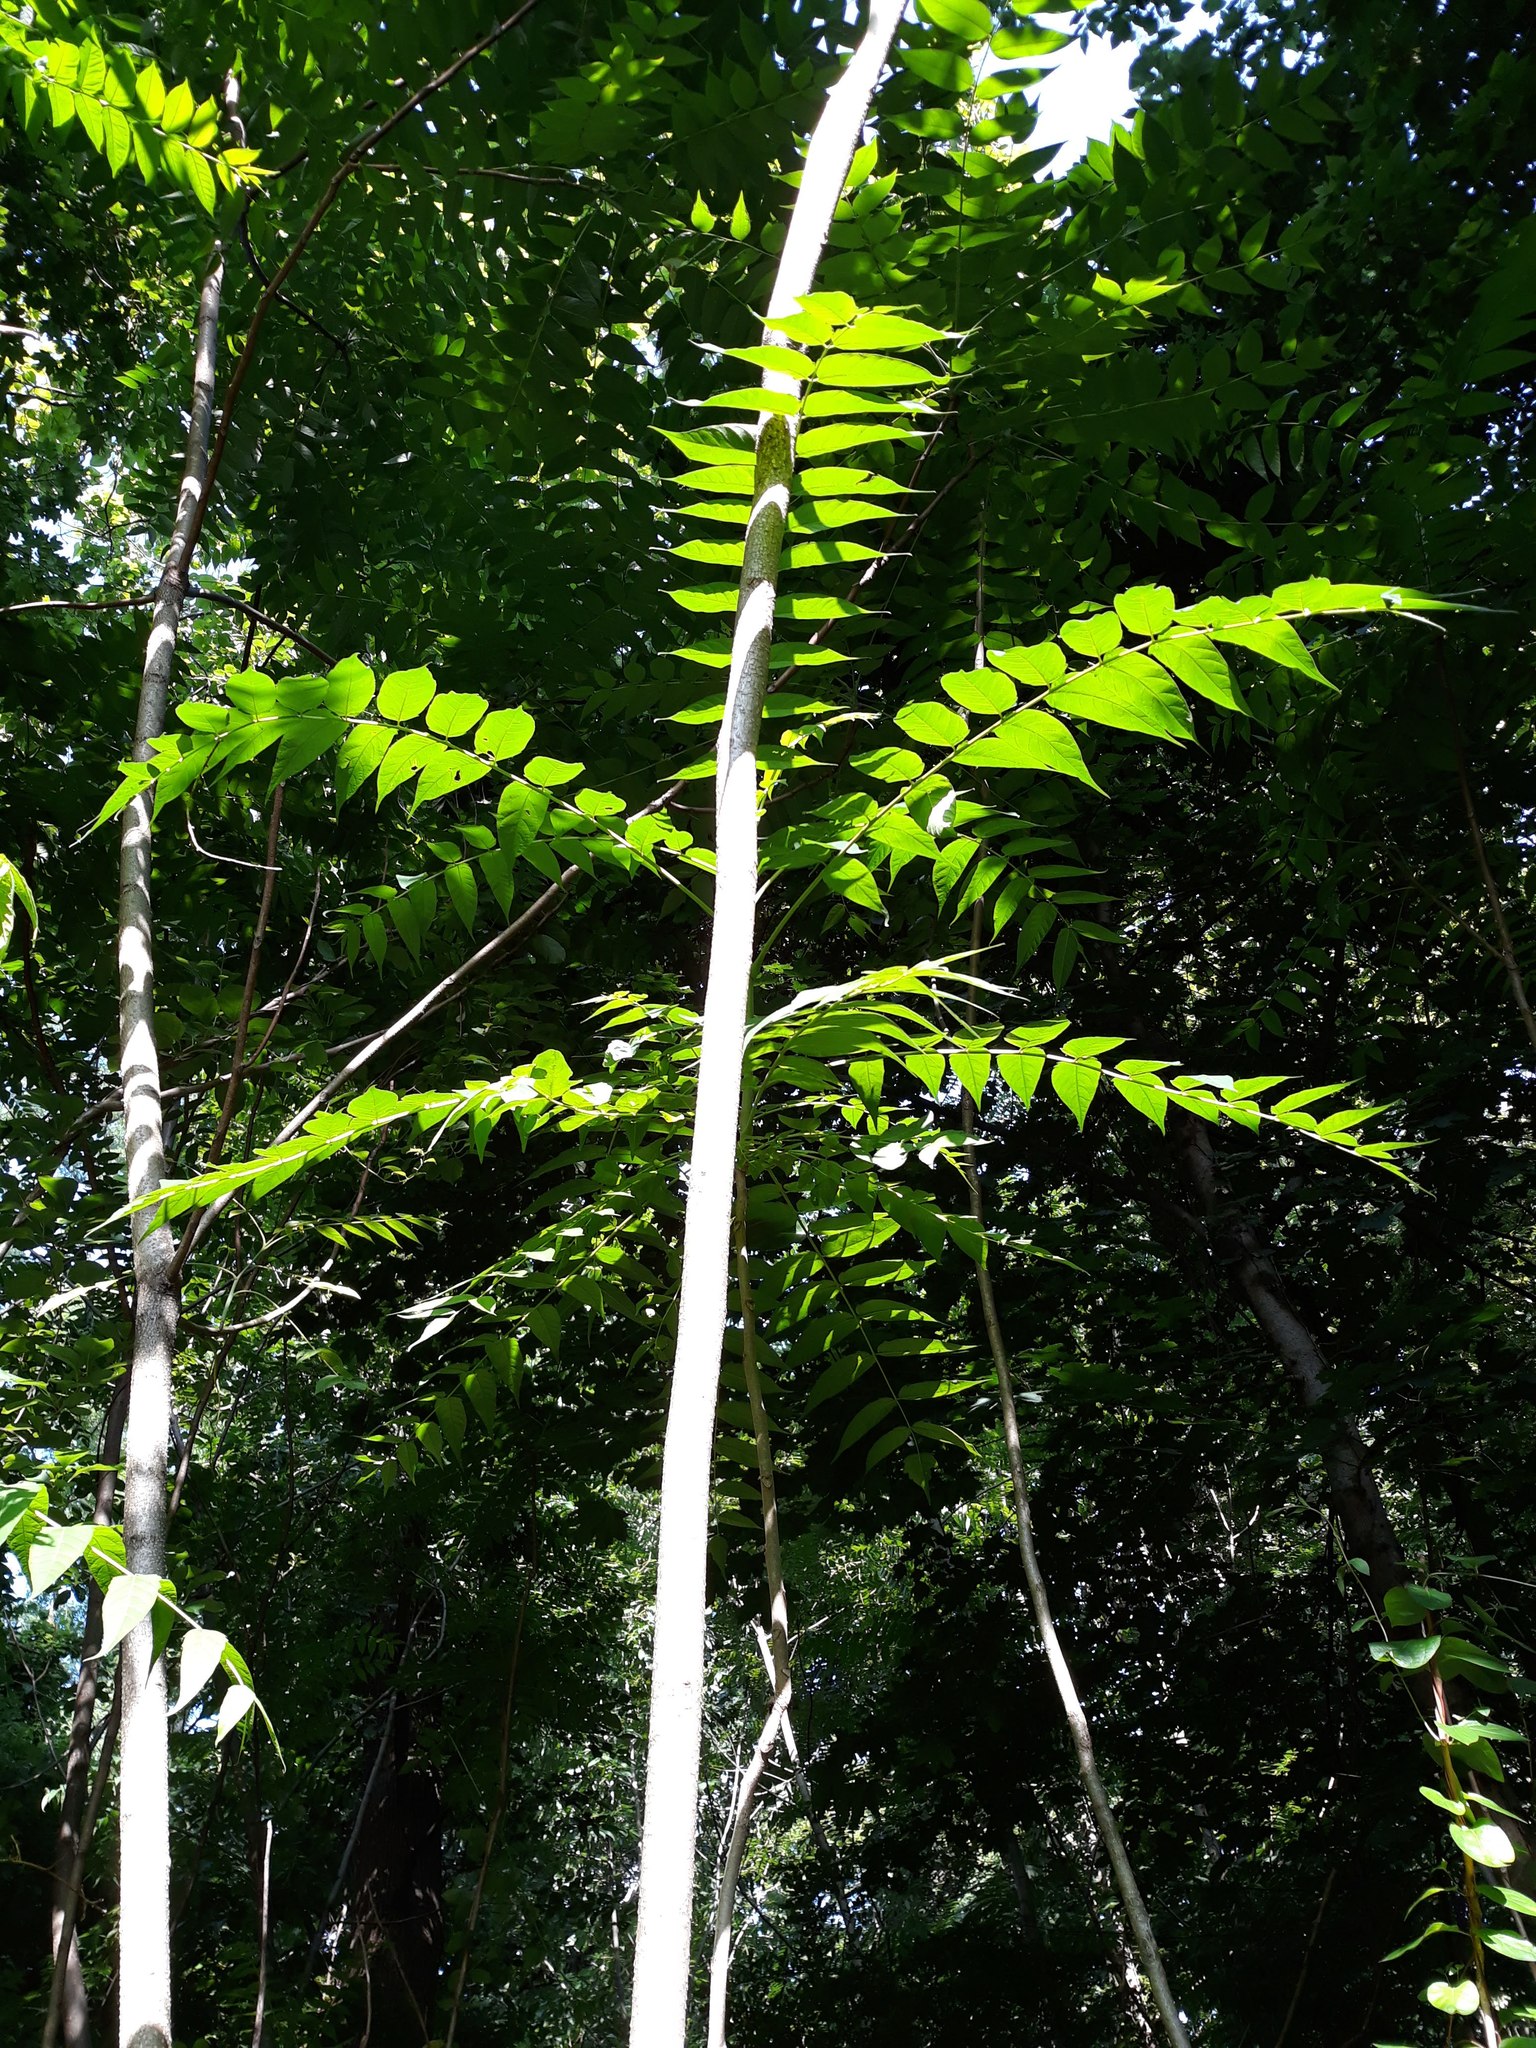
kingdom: Plantae
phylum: Tracheophyta
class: Magnoliopsida
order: Sapindales
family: Simaroubaceae
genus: Ailanthus
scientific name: Ailanthus altissima
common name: Tree-of-heaven
